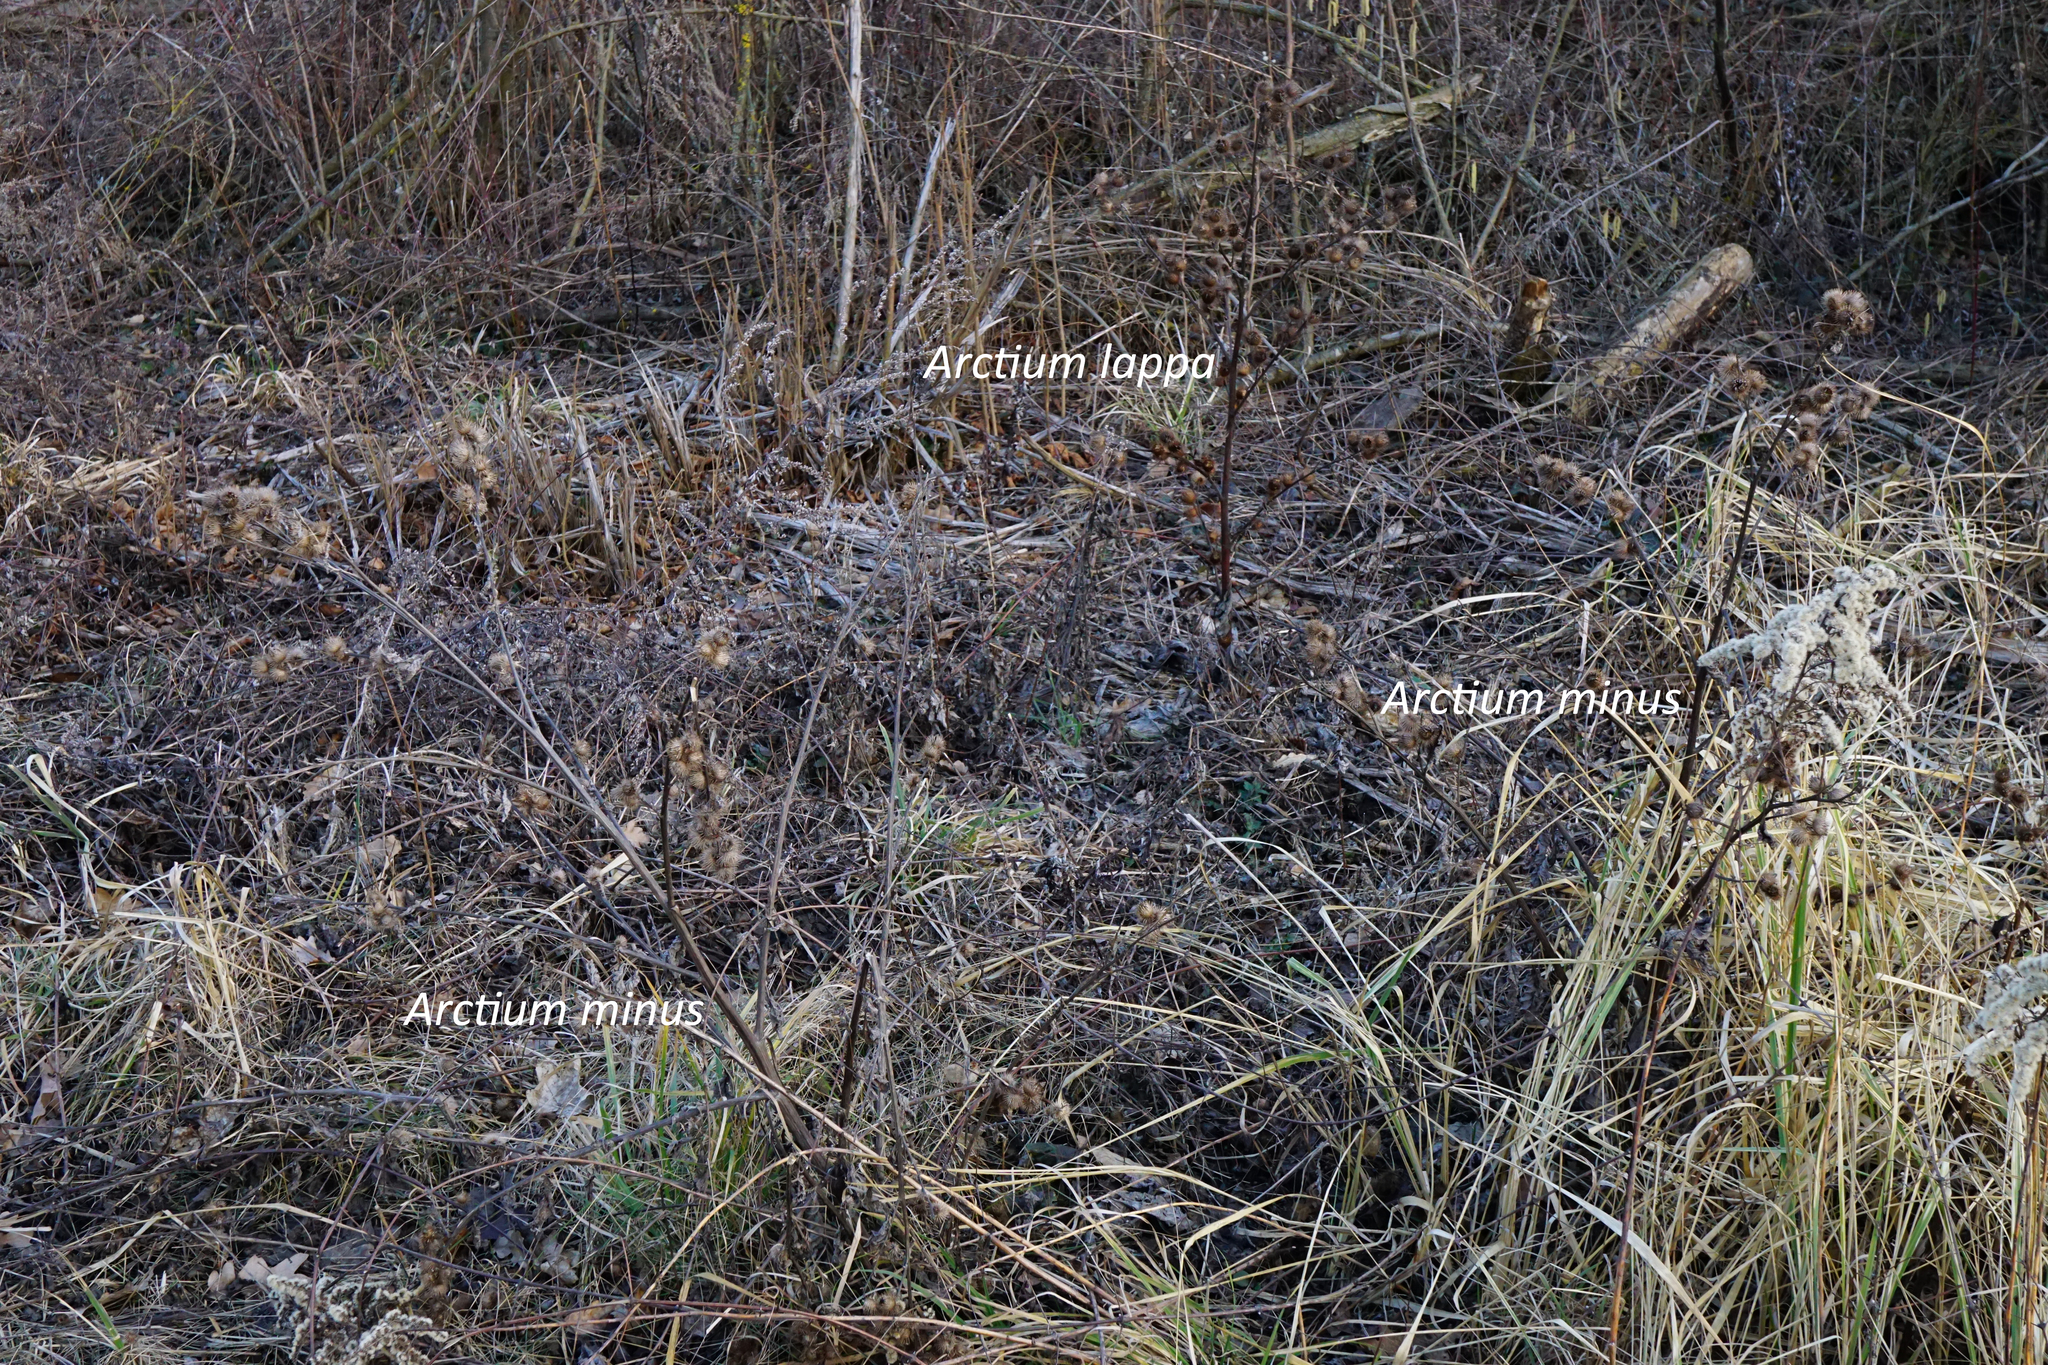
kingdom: Plantae
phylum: Tracheophyta
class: Magnoliopsida
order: Asterales
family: Asteraceae
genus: Arctium
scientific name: Arctium lappa
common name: Greater burdock
